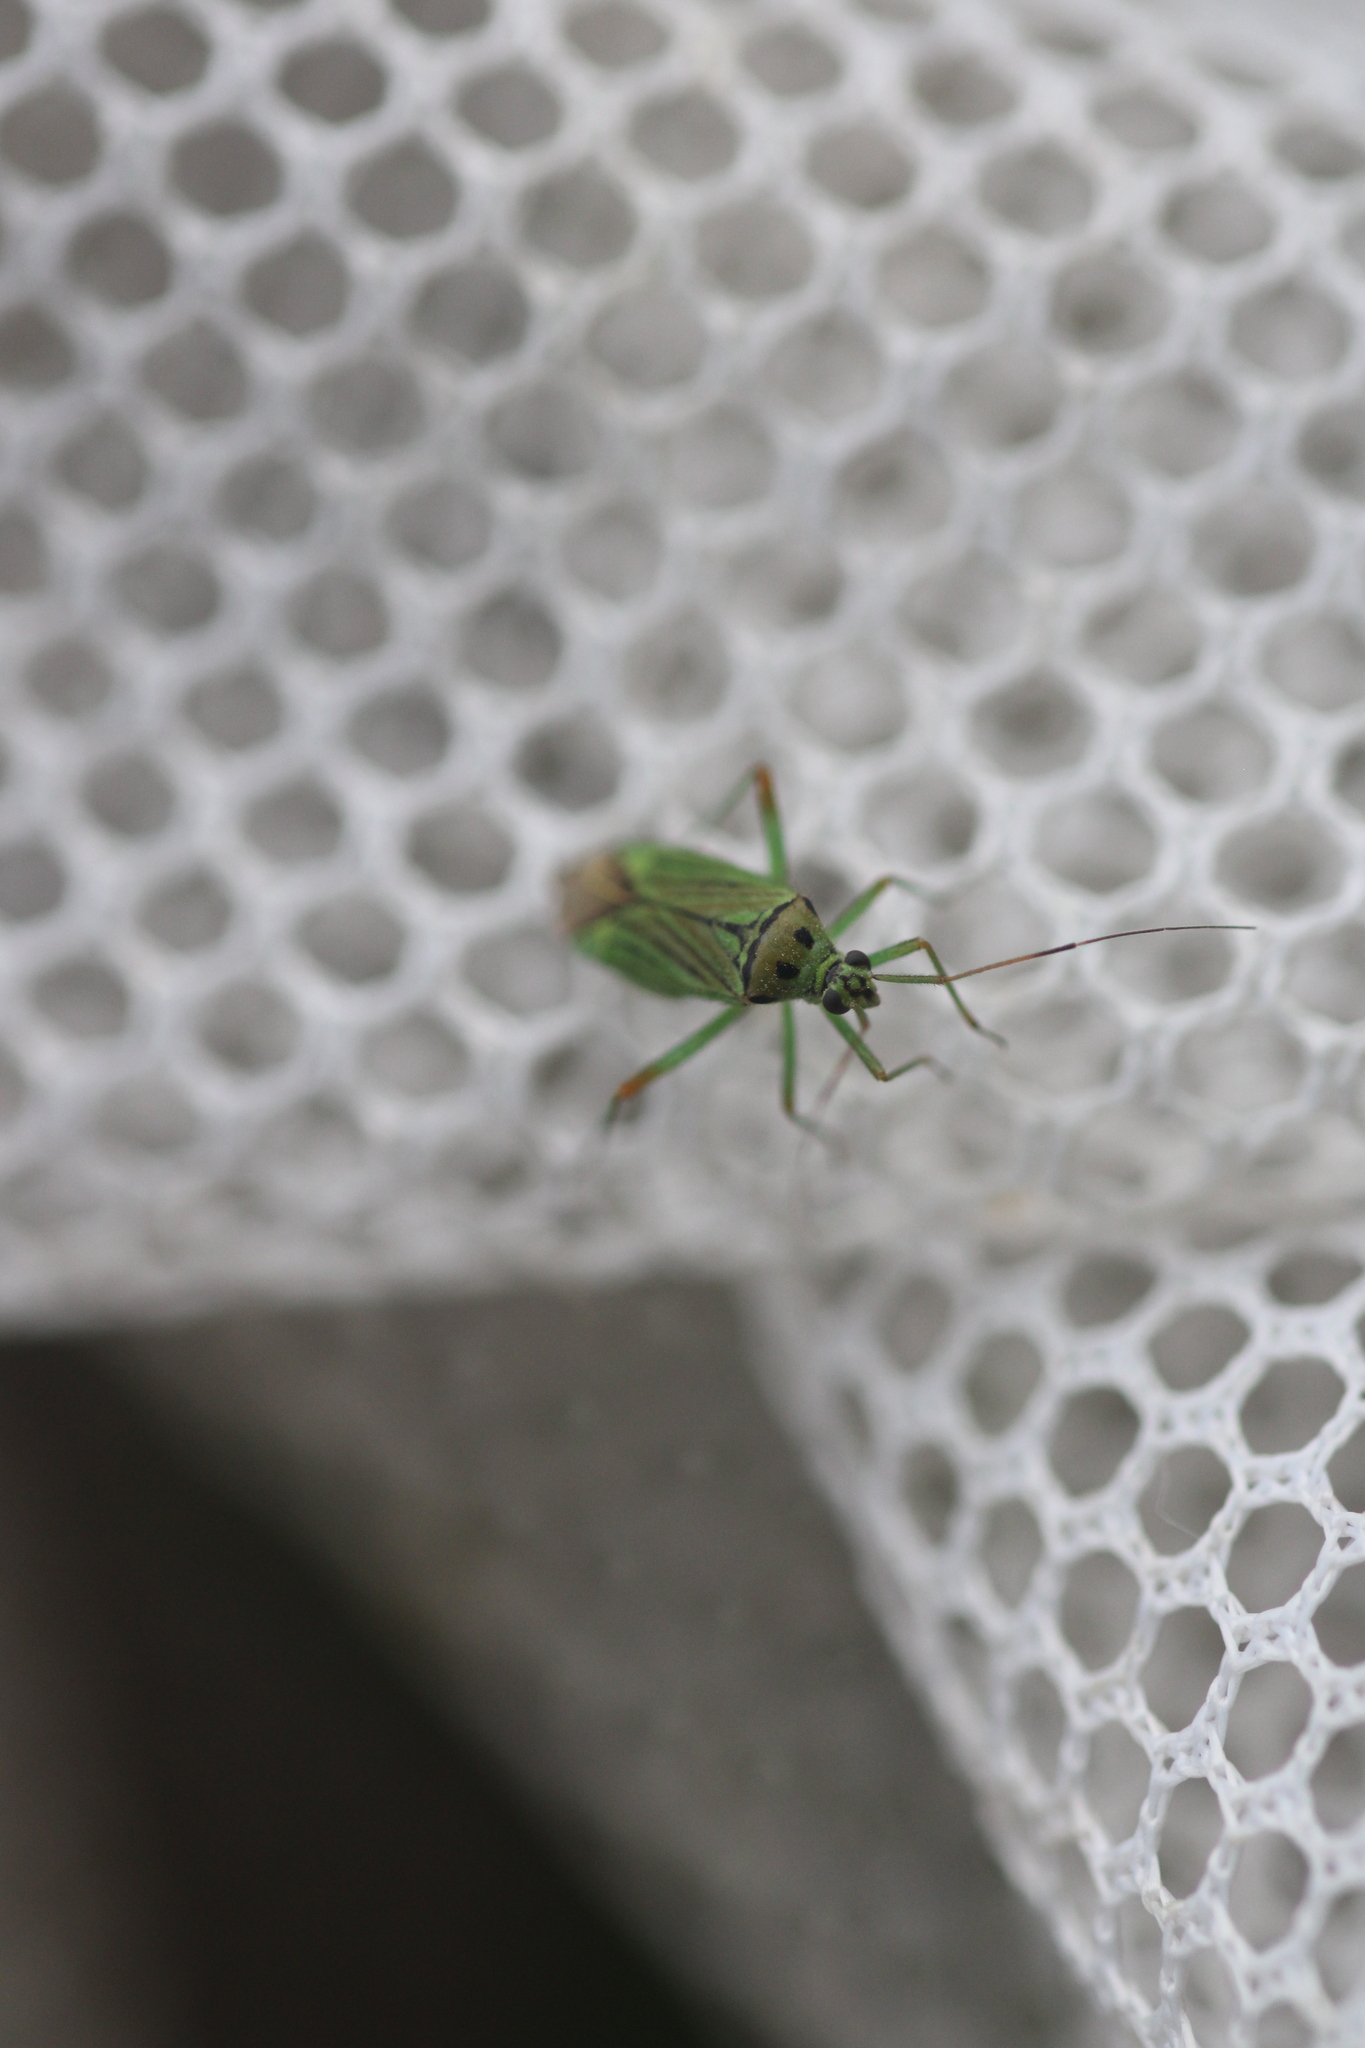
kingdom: Animalia
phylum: Arthropoda
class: Insecta
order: Hemiptera
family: Miridae
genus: Mermitelocerus
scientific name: Mermitelocerus schmidtii
